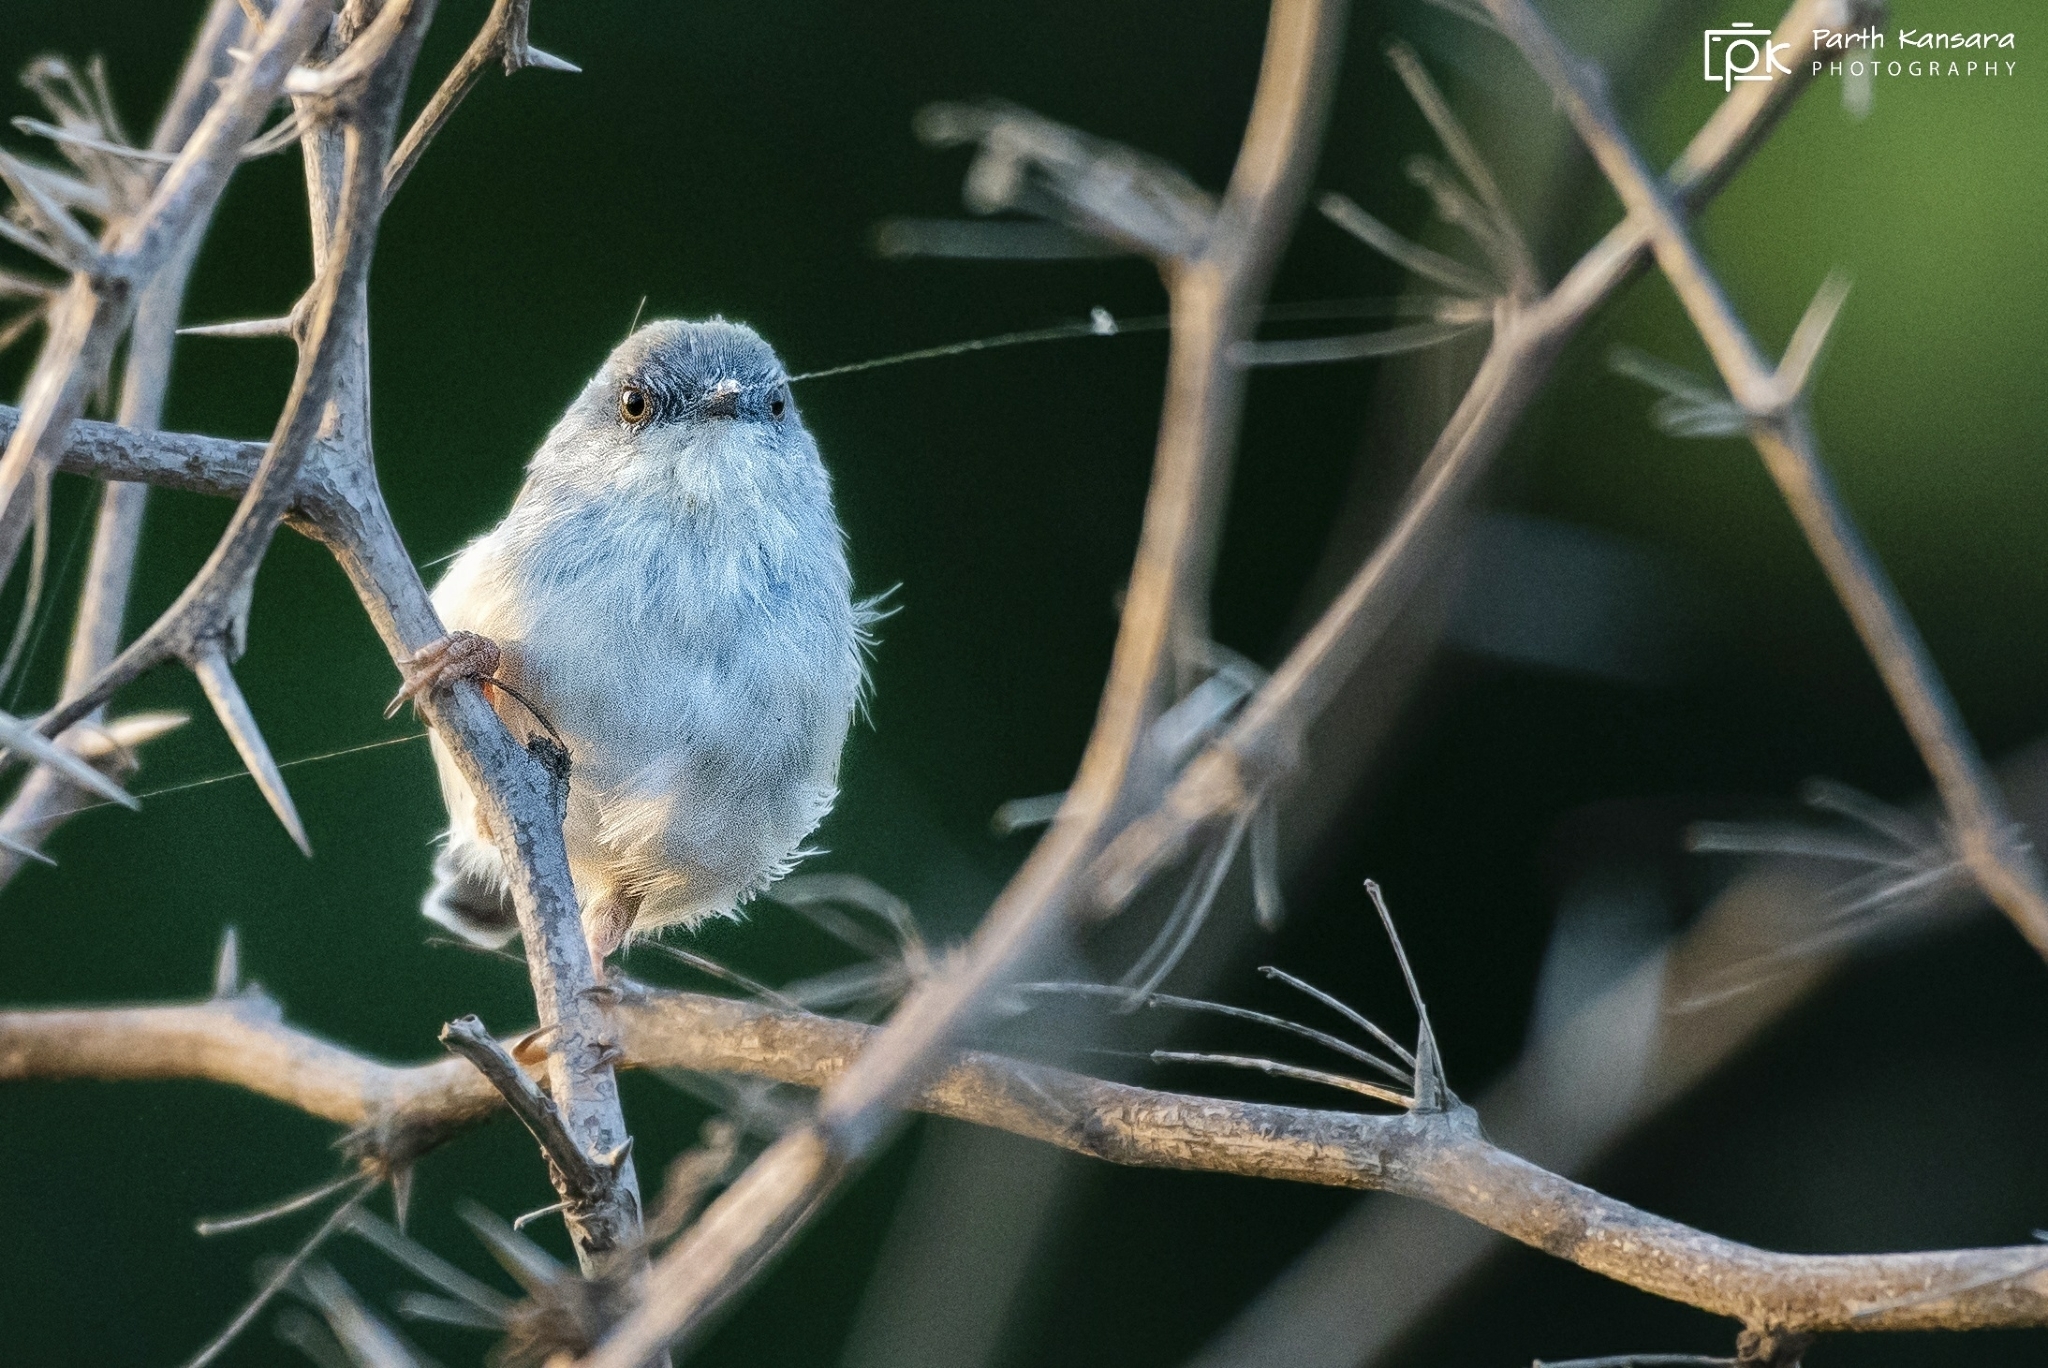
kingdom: Animalia
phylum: Chordata
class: Aves
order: Passeriformes
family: Cisticolidae
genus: Prinia
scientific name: Prinia hodgsonii
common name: Grey-breasted prinia
